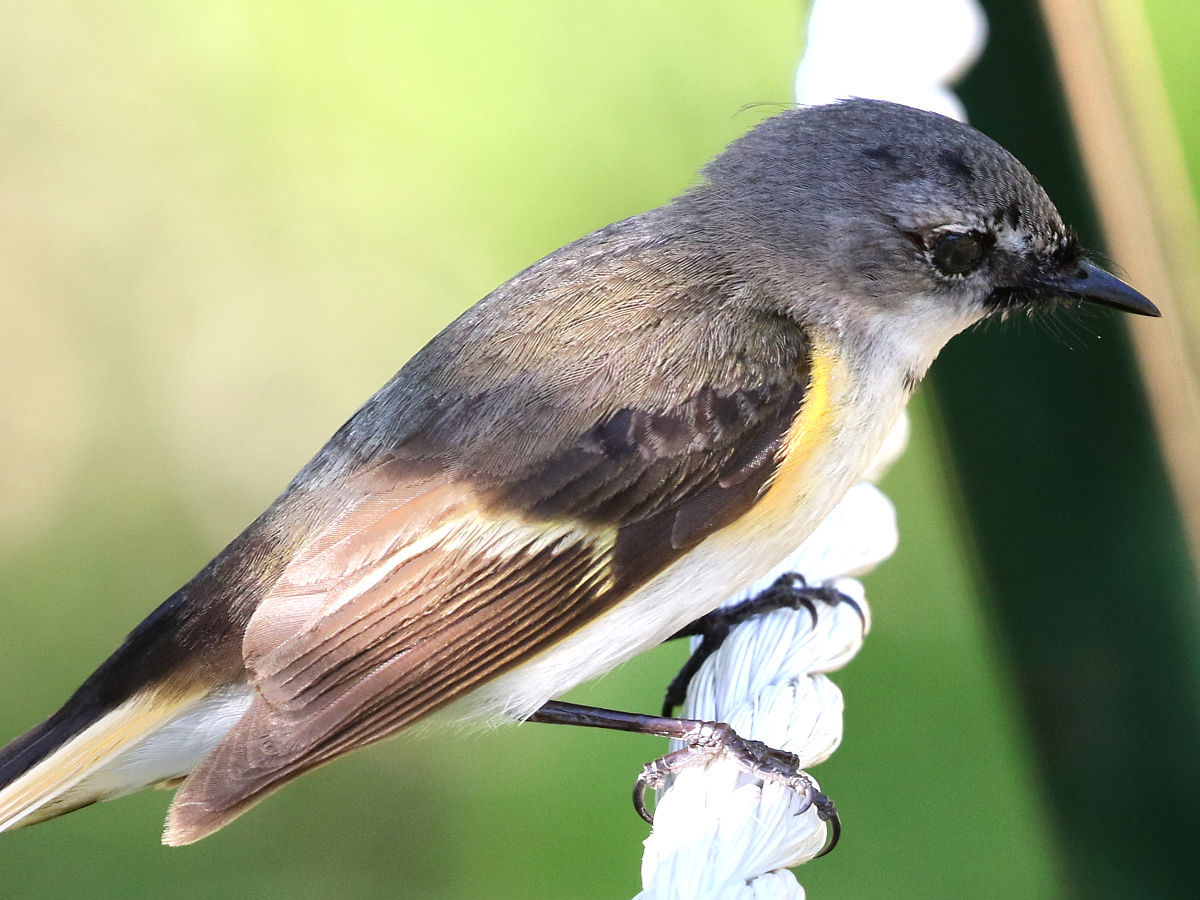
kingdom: Animalia
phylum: Chordata
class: Aves
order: Passeriformes
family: Parulidae
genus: Setophaga
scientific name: Setophaga ruticilla
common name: American redstart
